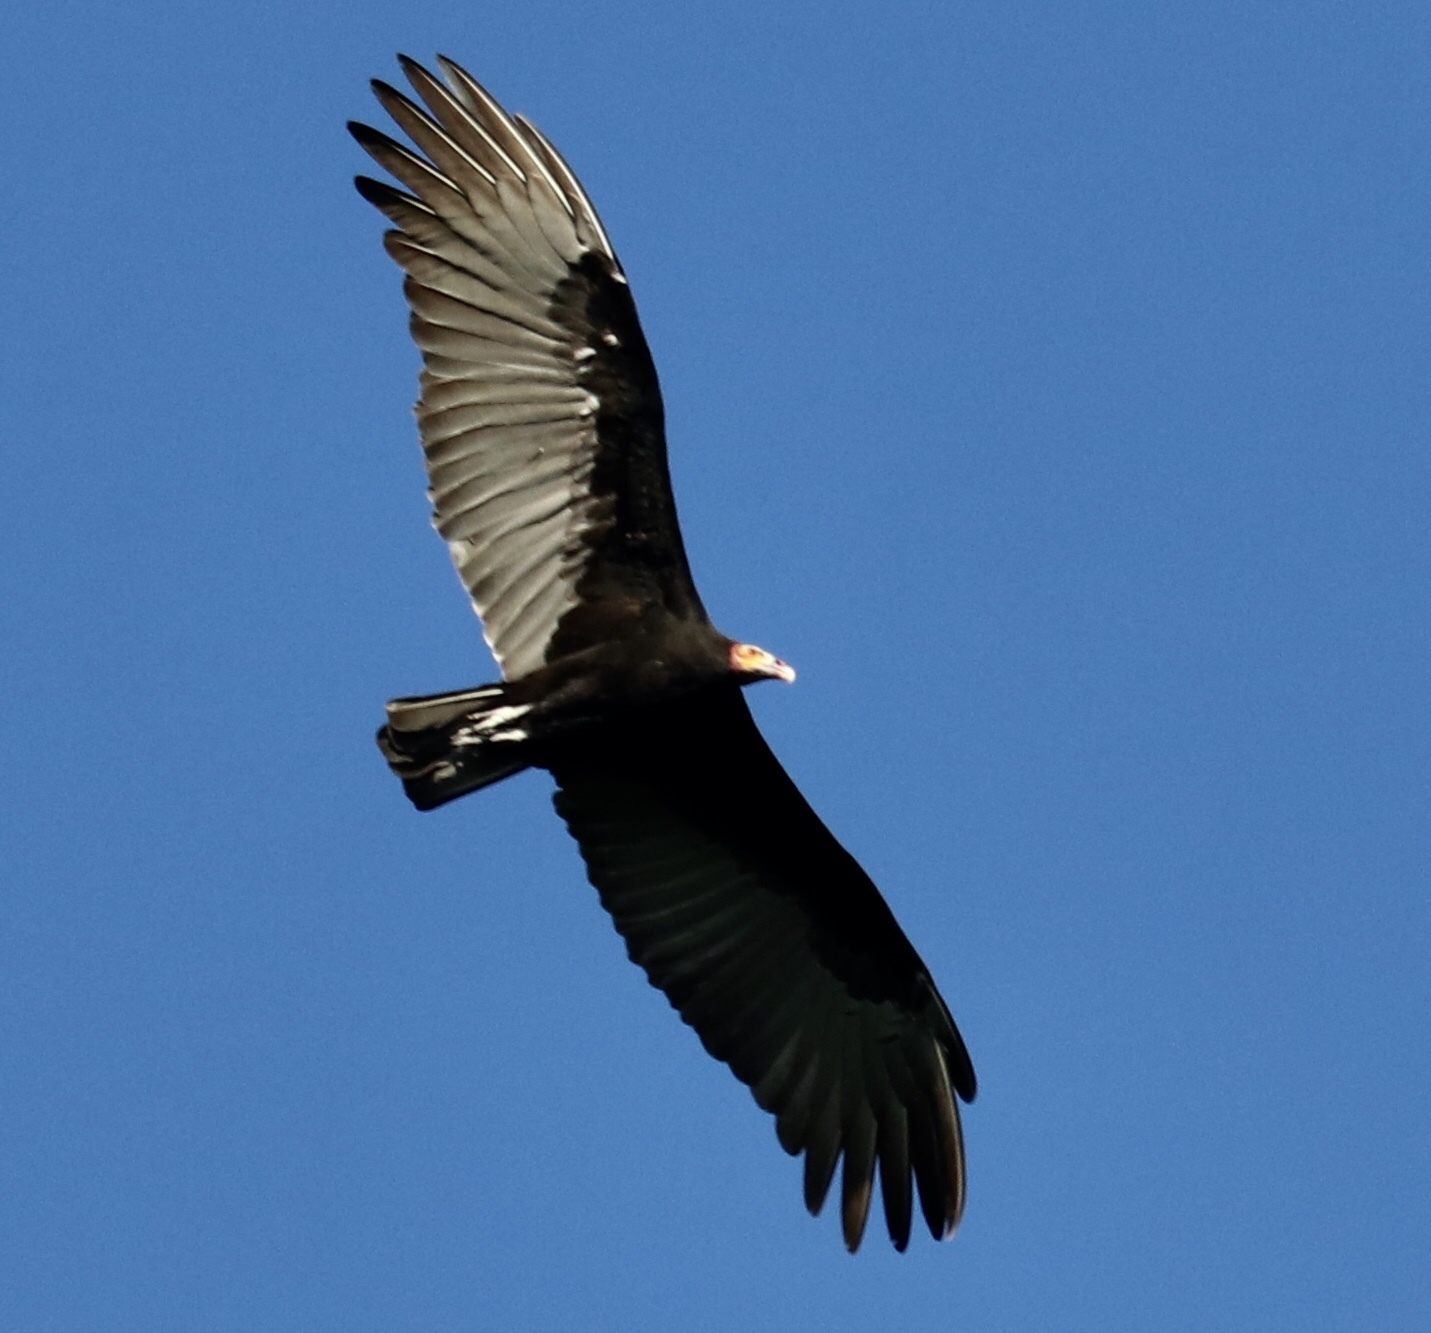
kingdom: Animalia
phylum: Chordata
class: Aves
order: Accipitriformes
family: Cathartidae
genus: Cathartes
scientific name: Cathartes burrovianus
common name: Lesser yellow-headed vulture
